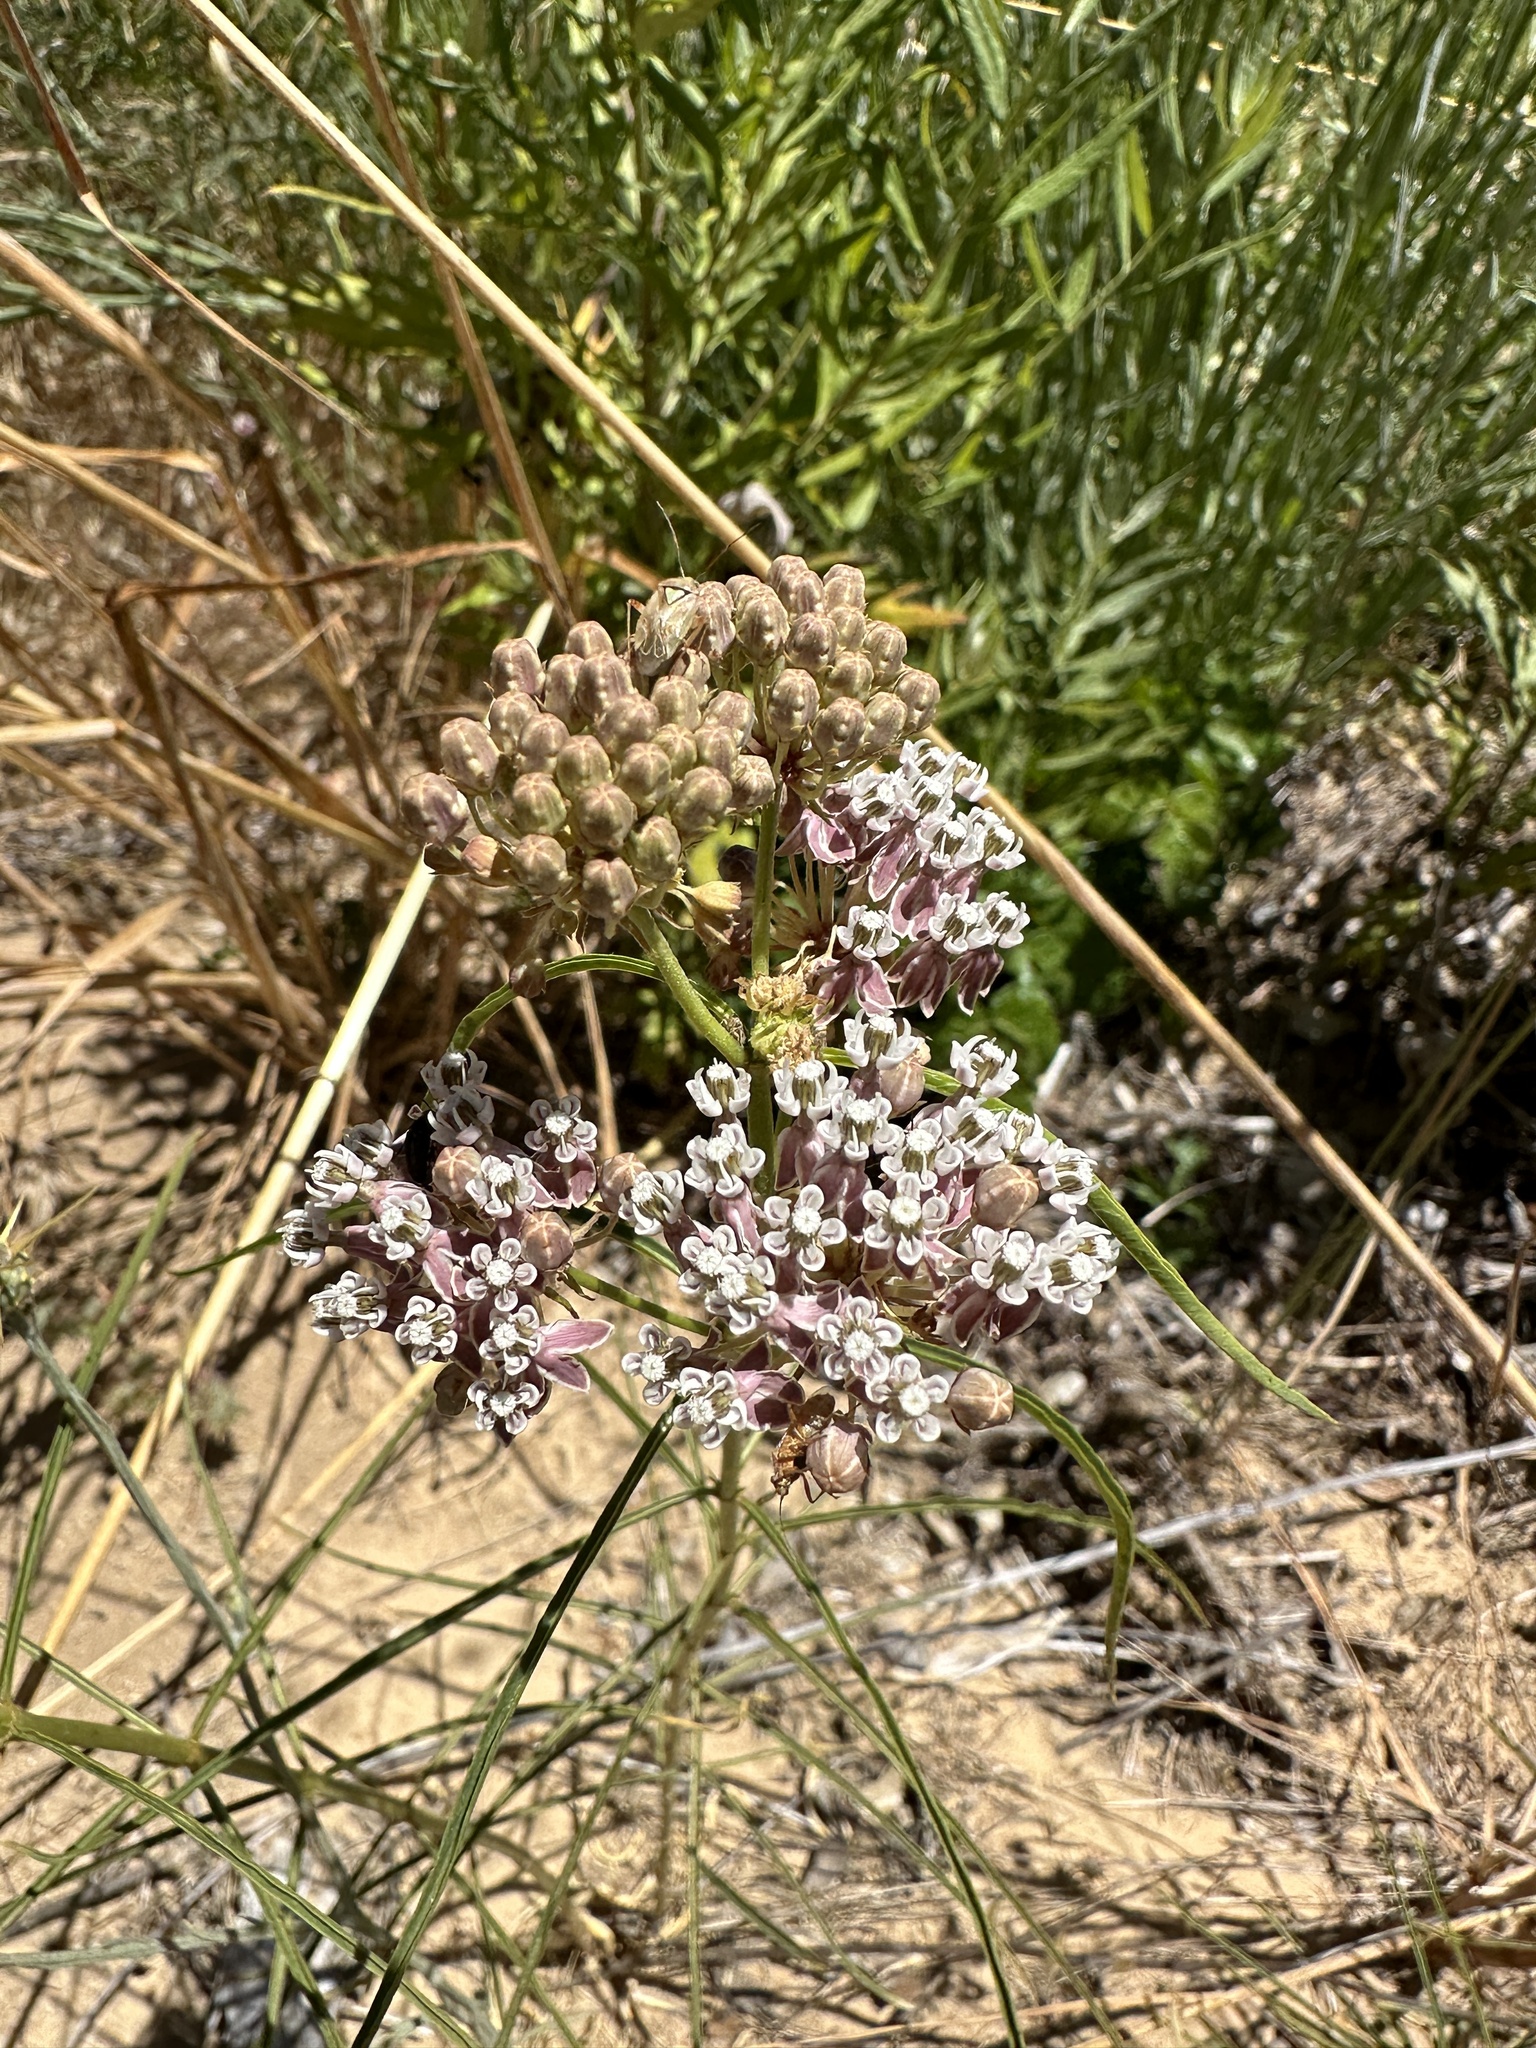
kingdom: Plantae
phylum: Tracheophyta
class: Magnoliopsida
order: Gentianales
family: Apocynaceae
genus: Asclepias
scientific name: Asclepias fascicularis
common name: Mexican milkweed
